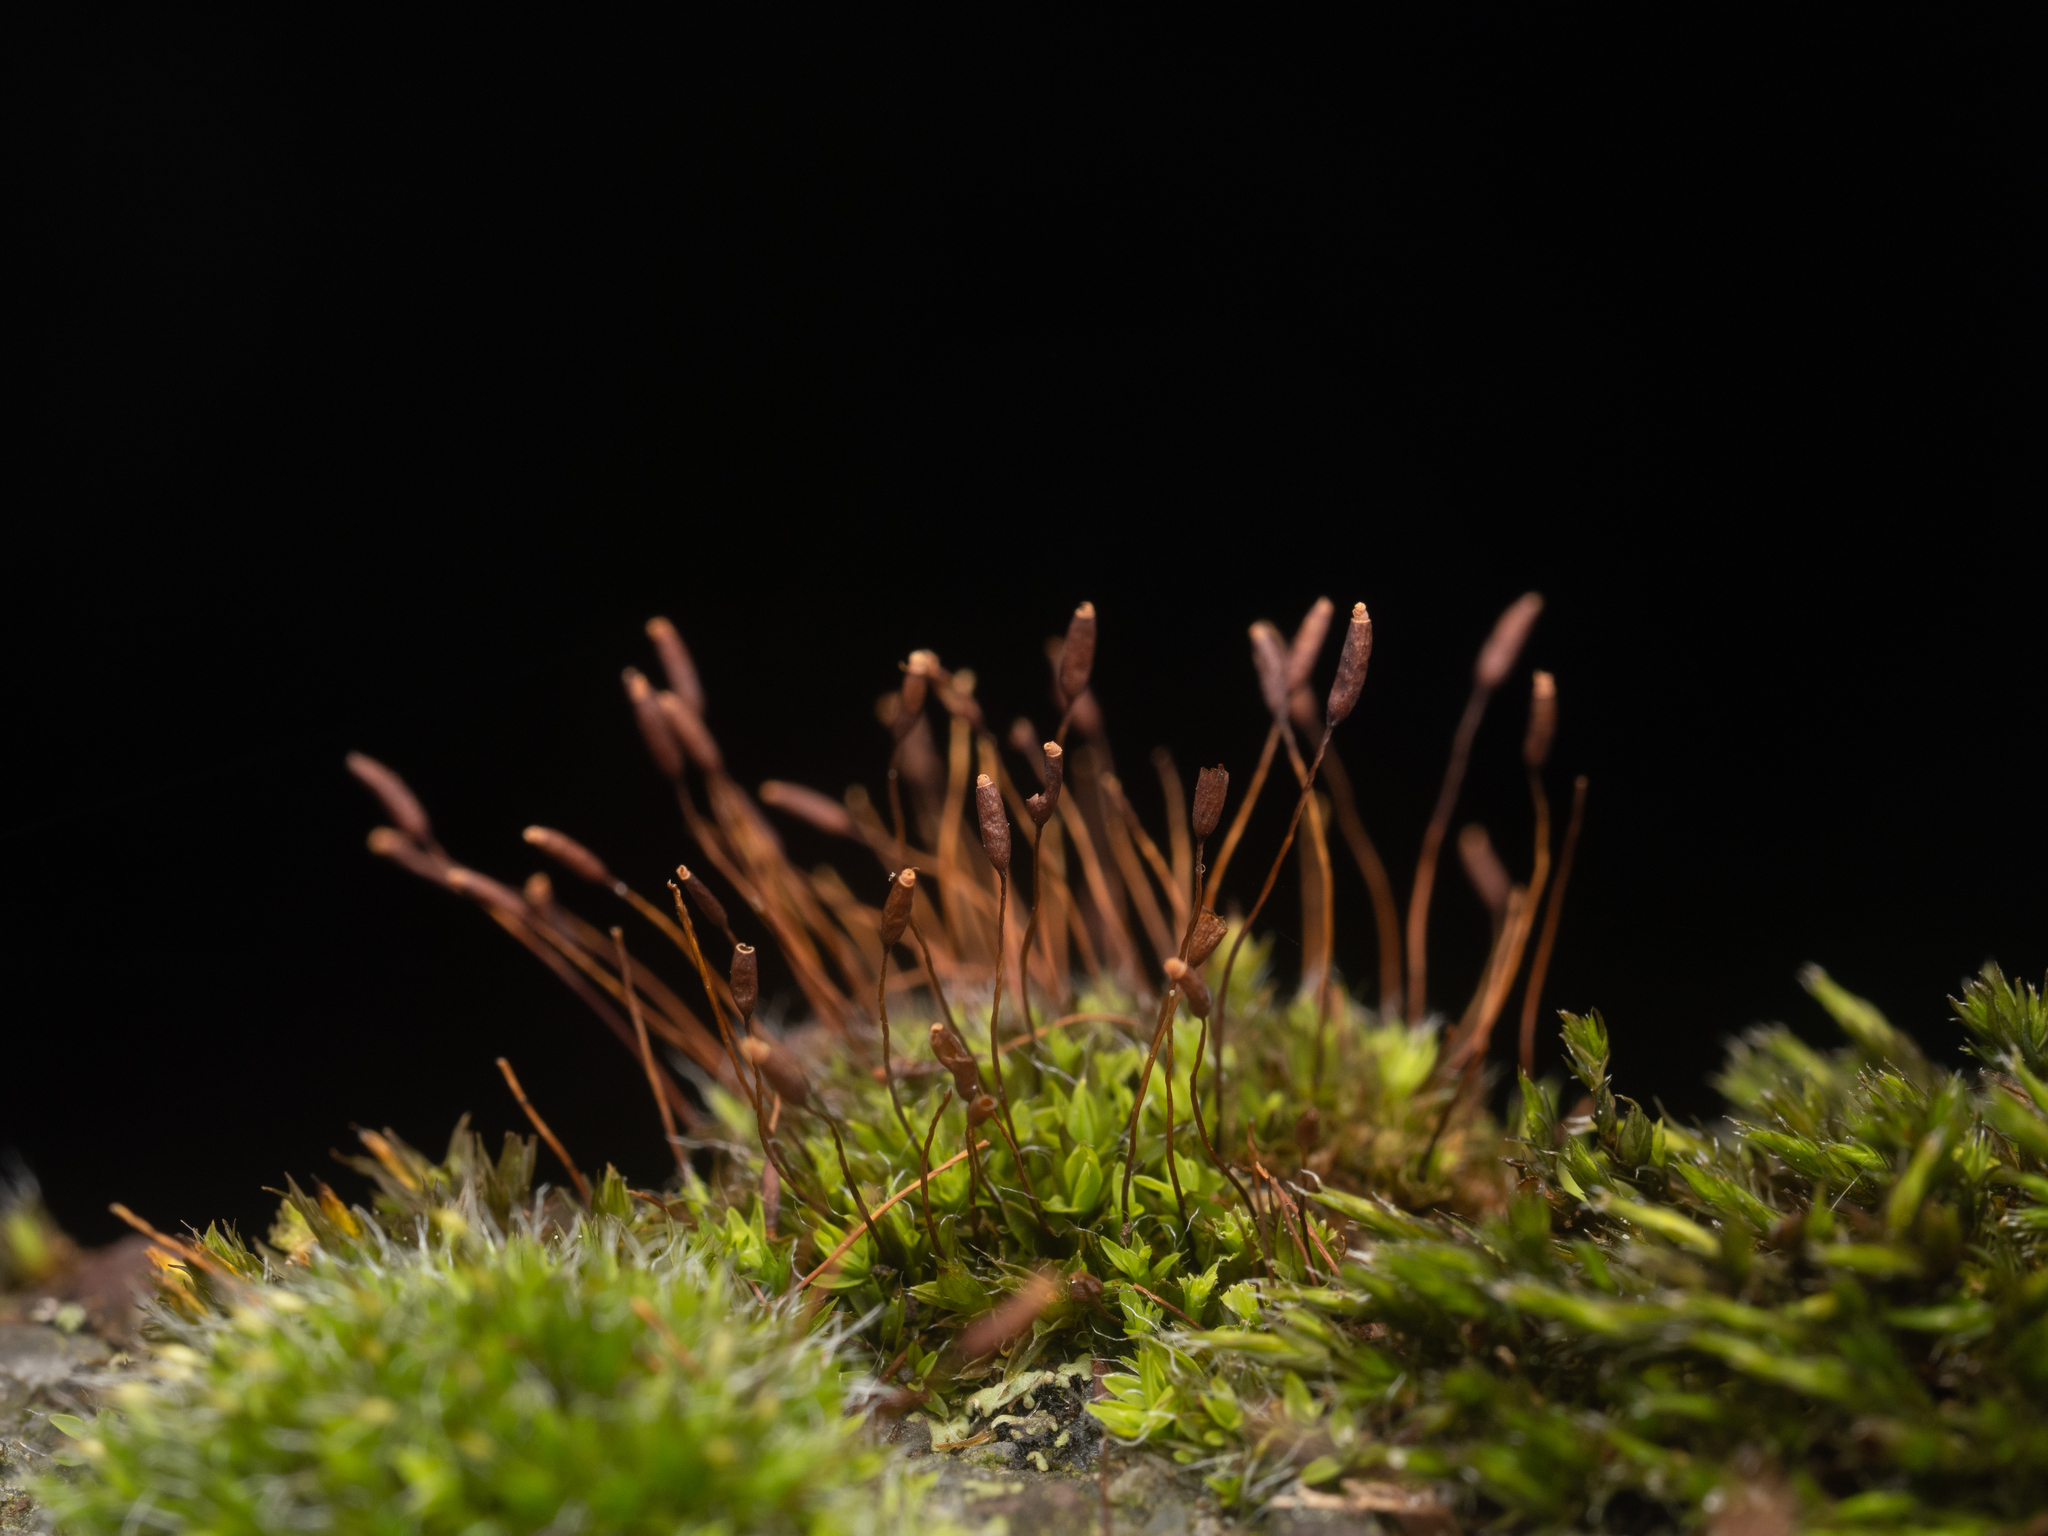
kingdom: Plantae
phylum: Bryophyta
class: Bryopsida
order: Pottiales
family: Pottiaceae
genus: Tortula
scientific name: Tortula muralis
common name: Wall screw-moss
